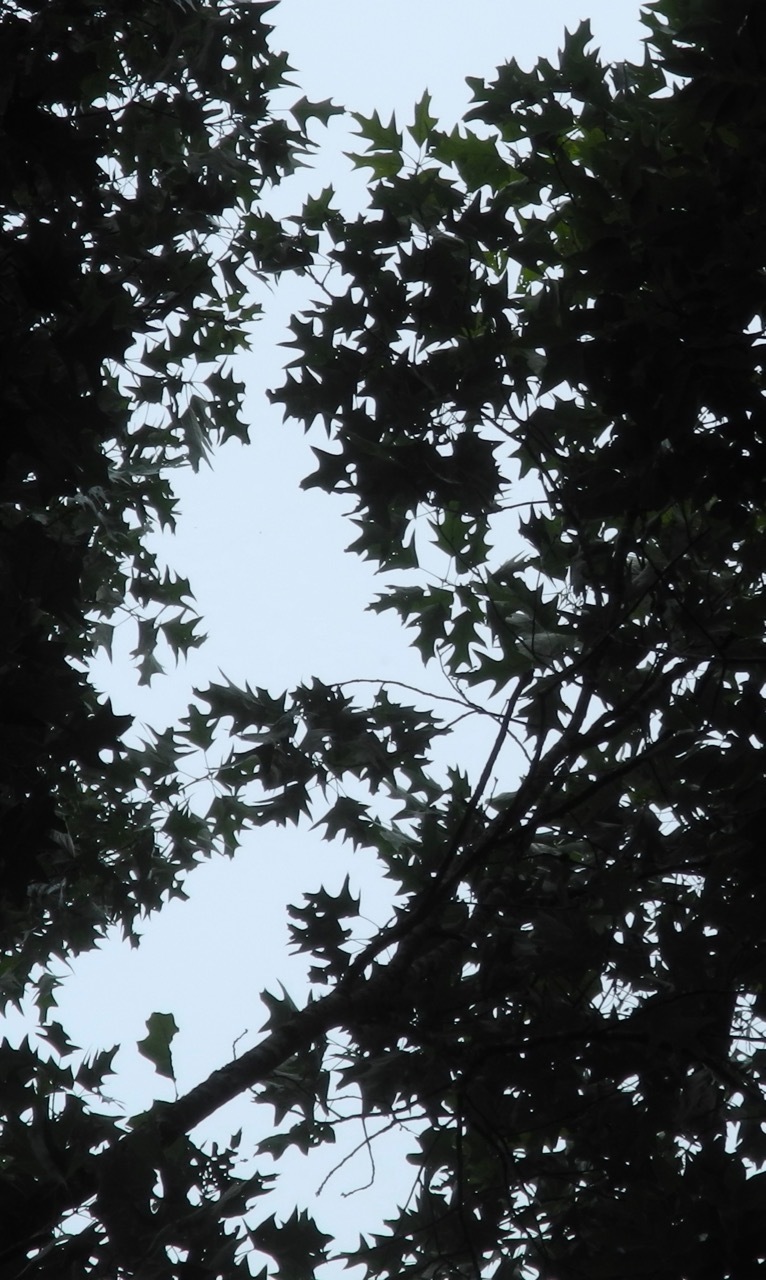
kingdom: Plantae
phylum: Tracheophyta
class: Magnoliopsida
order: Fagales
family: Fagaceae
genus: Quercus
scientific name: Quercus pagoda
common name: Cherrybark oak
